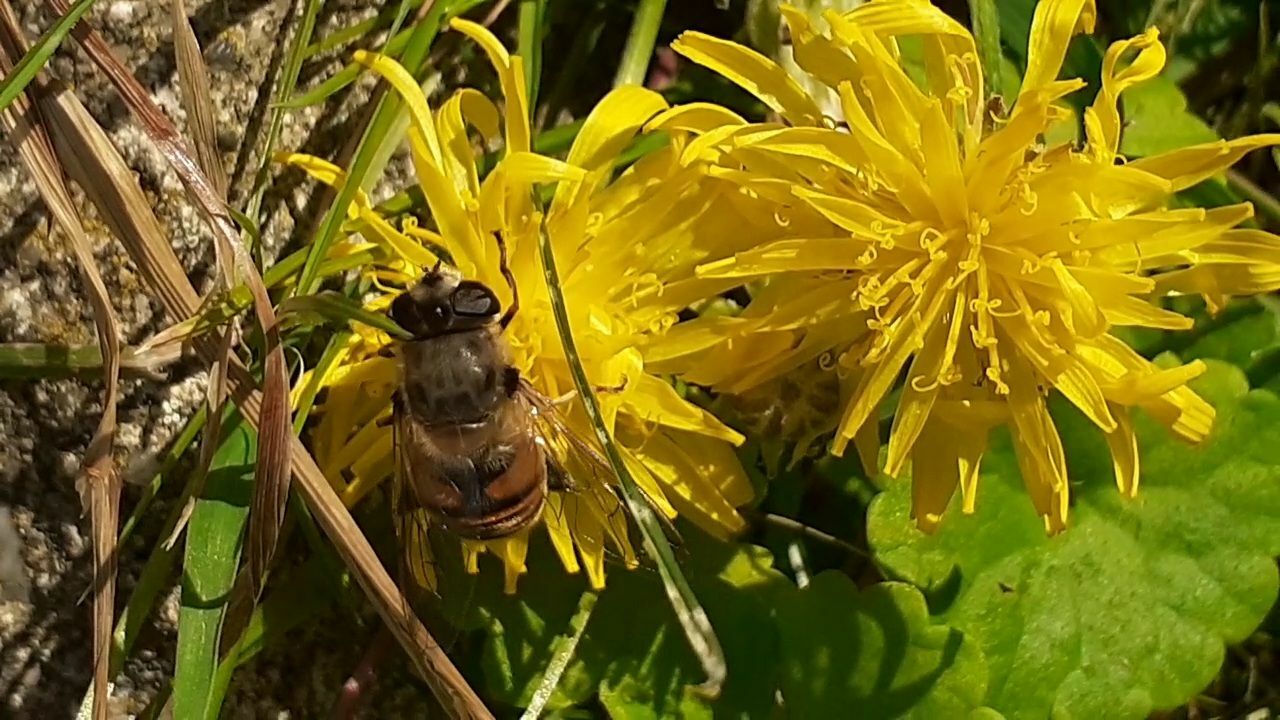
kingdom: Animalia
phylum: Arthropoda
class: Insecta
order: Diptera
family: Syrphidae
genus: Eristalis
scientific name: Eristalis tenax
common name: Drone fly
